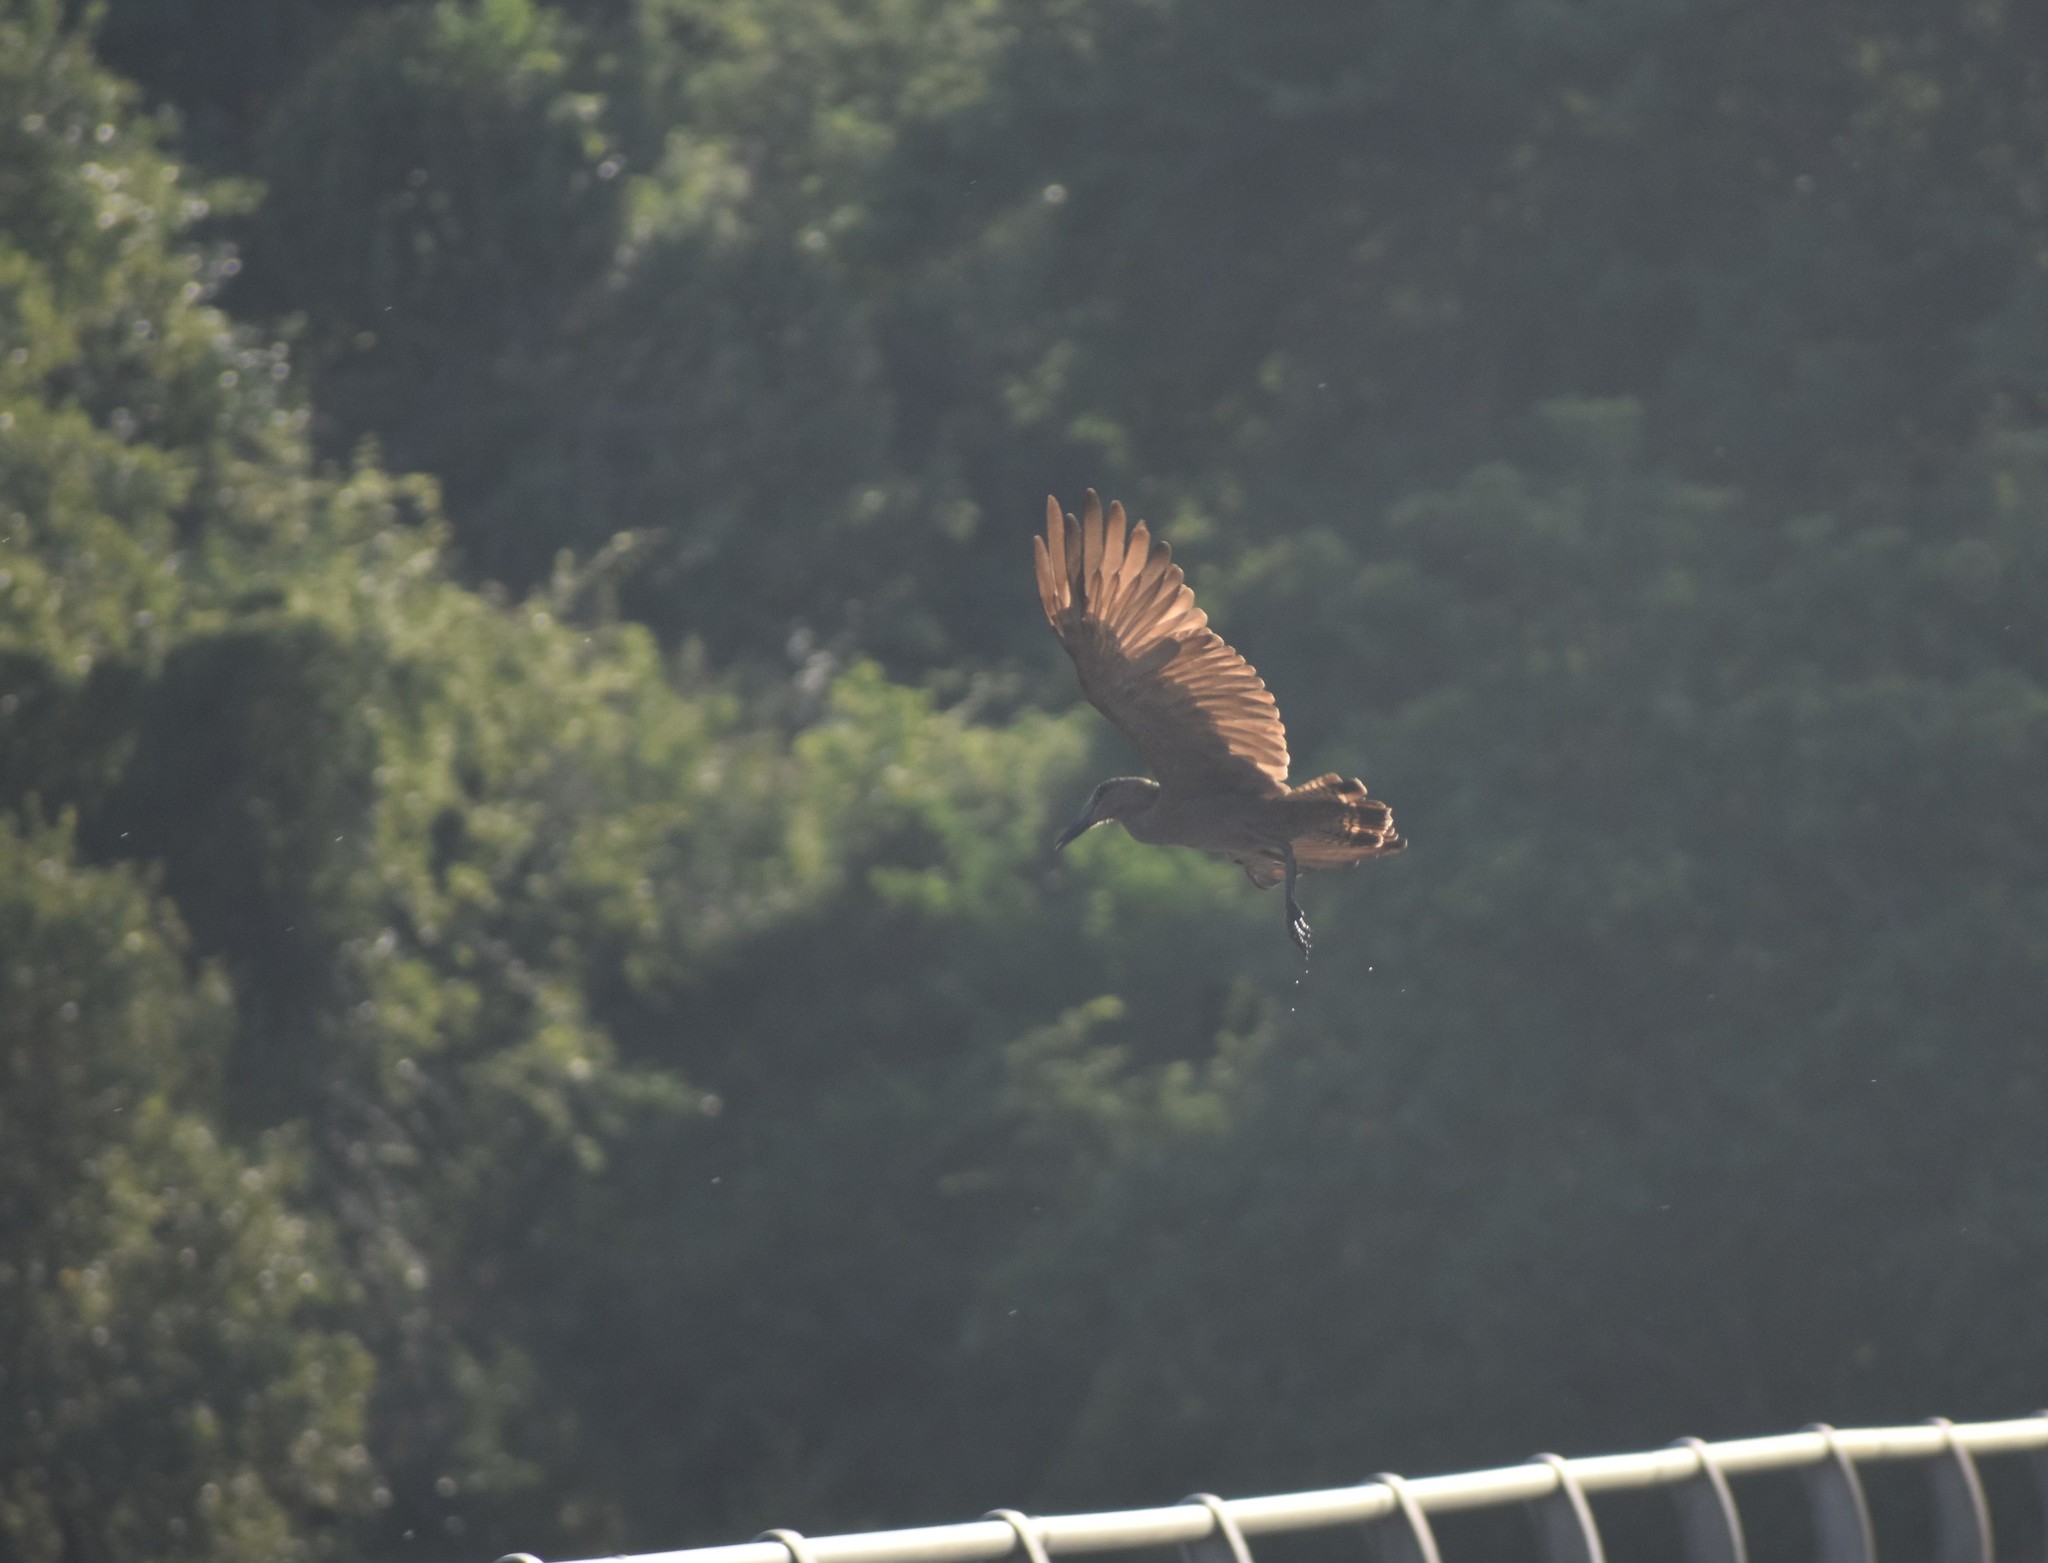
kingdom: Animalia
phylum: Chordata
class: Aves
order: Pelecaniformes
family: Scopidae
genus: Scopus
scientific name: Scopus umbretta
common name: Hamerkop
